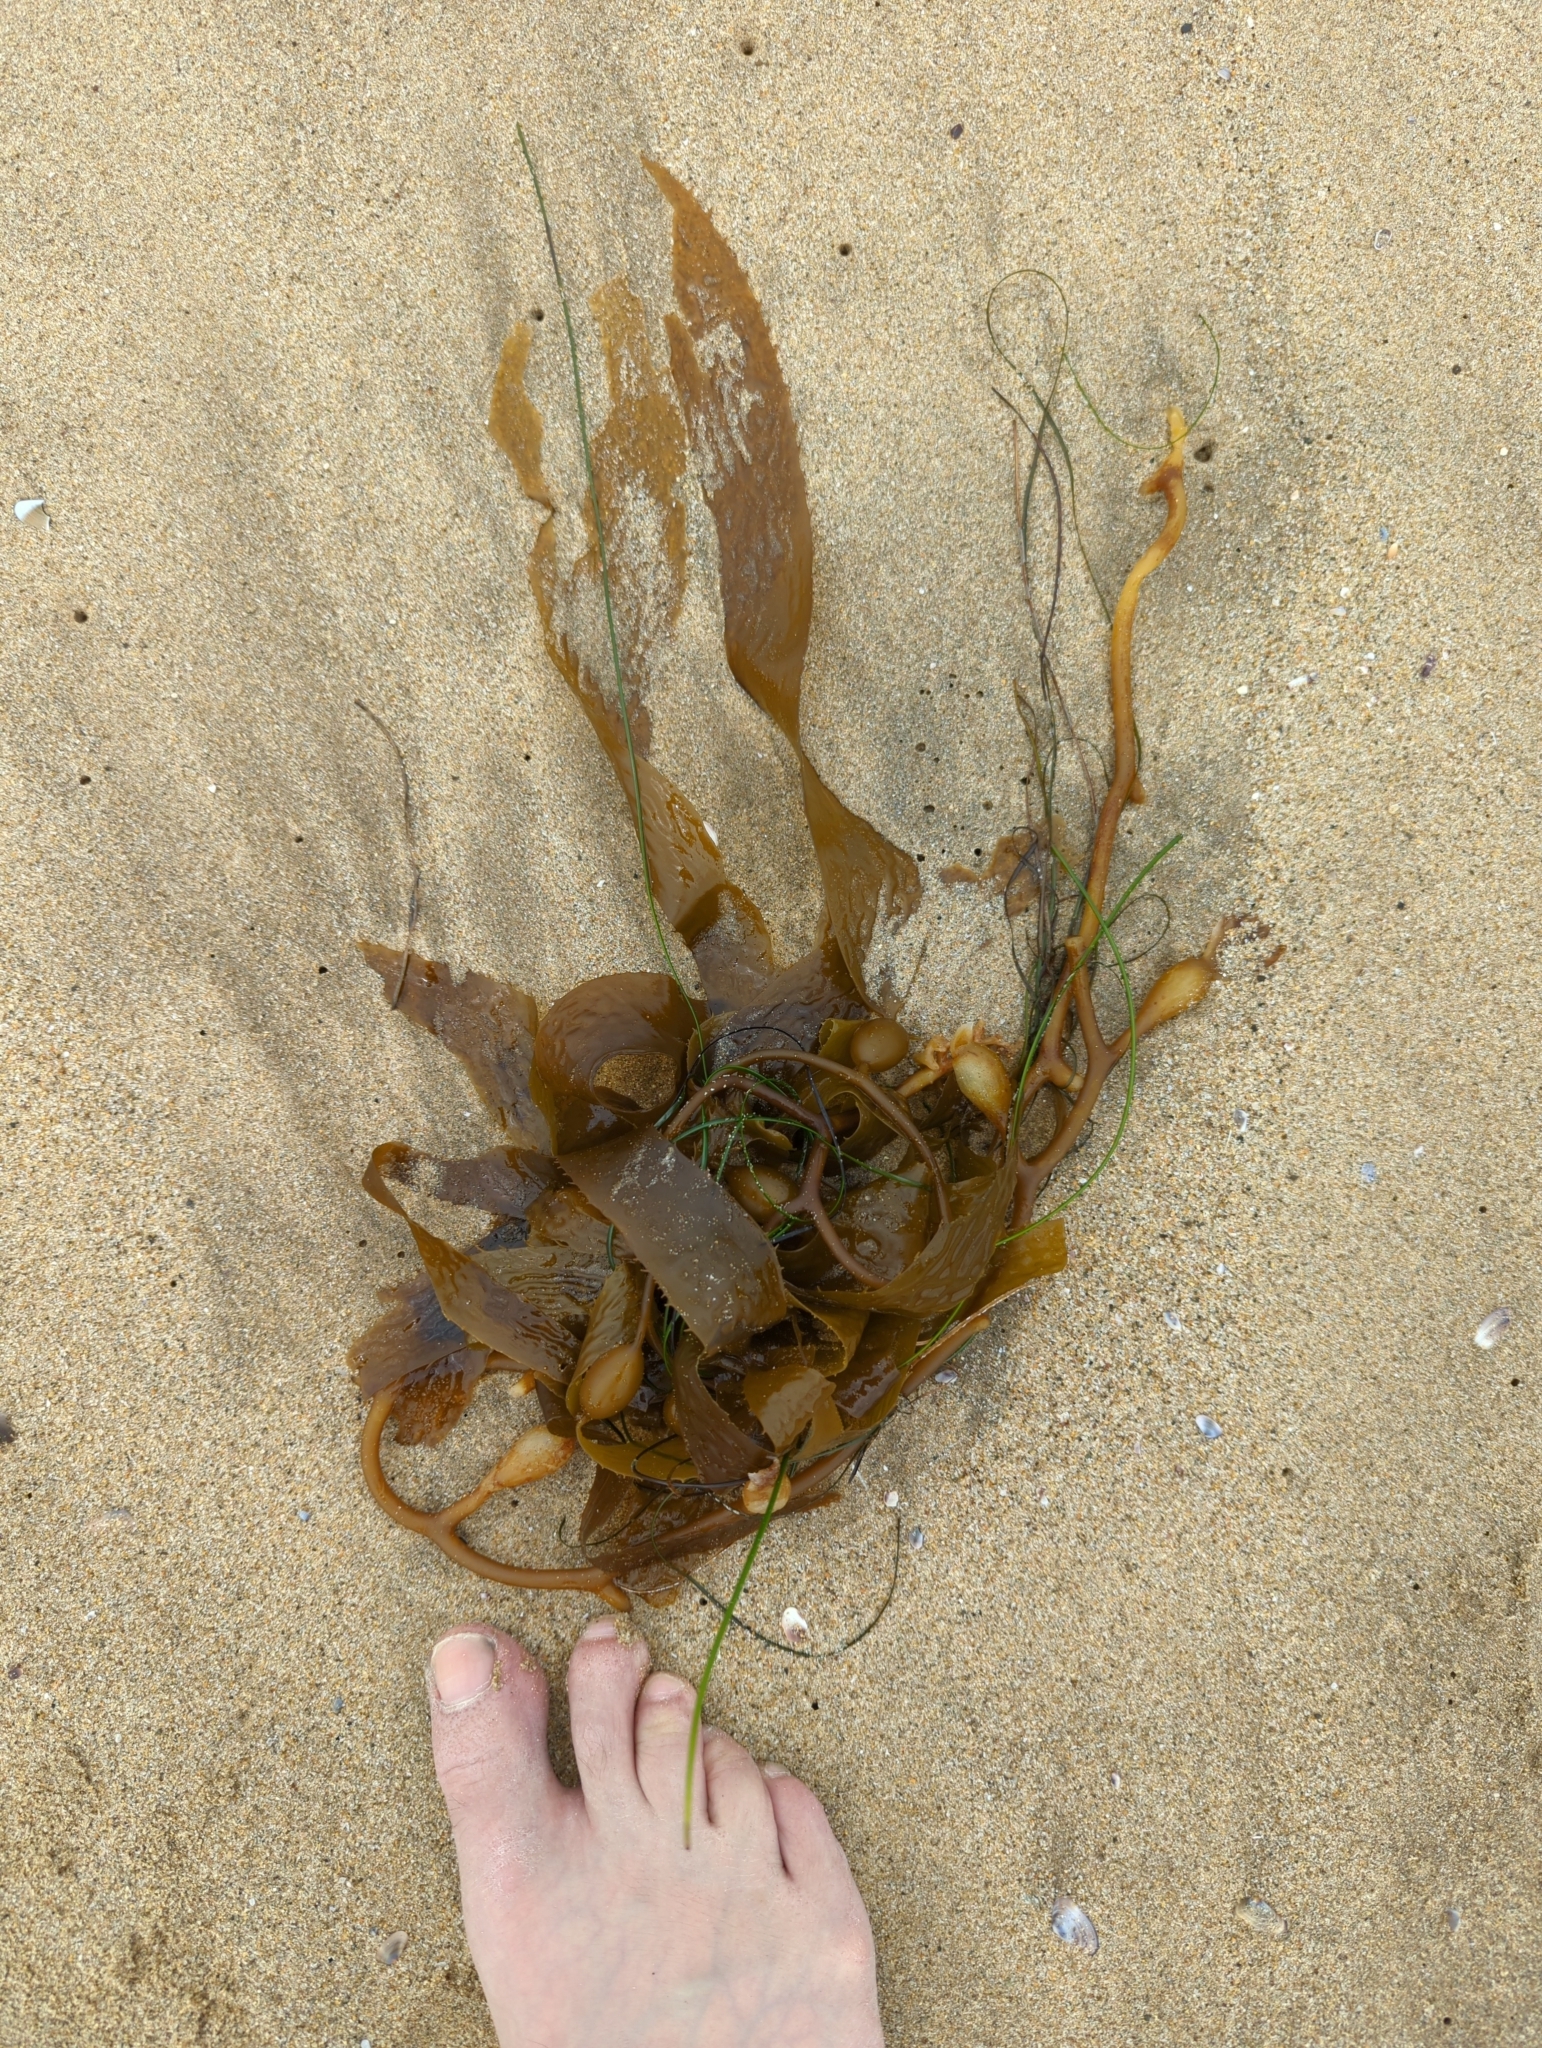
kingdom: Chromista
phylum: Ochrophyta
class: Phaeophyceae
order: Laminariales
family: Laminariaceae
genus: Macrocystis
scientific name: Macrocystis pyrifera
